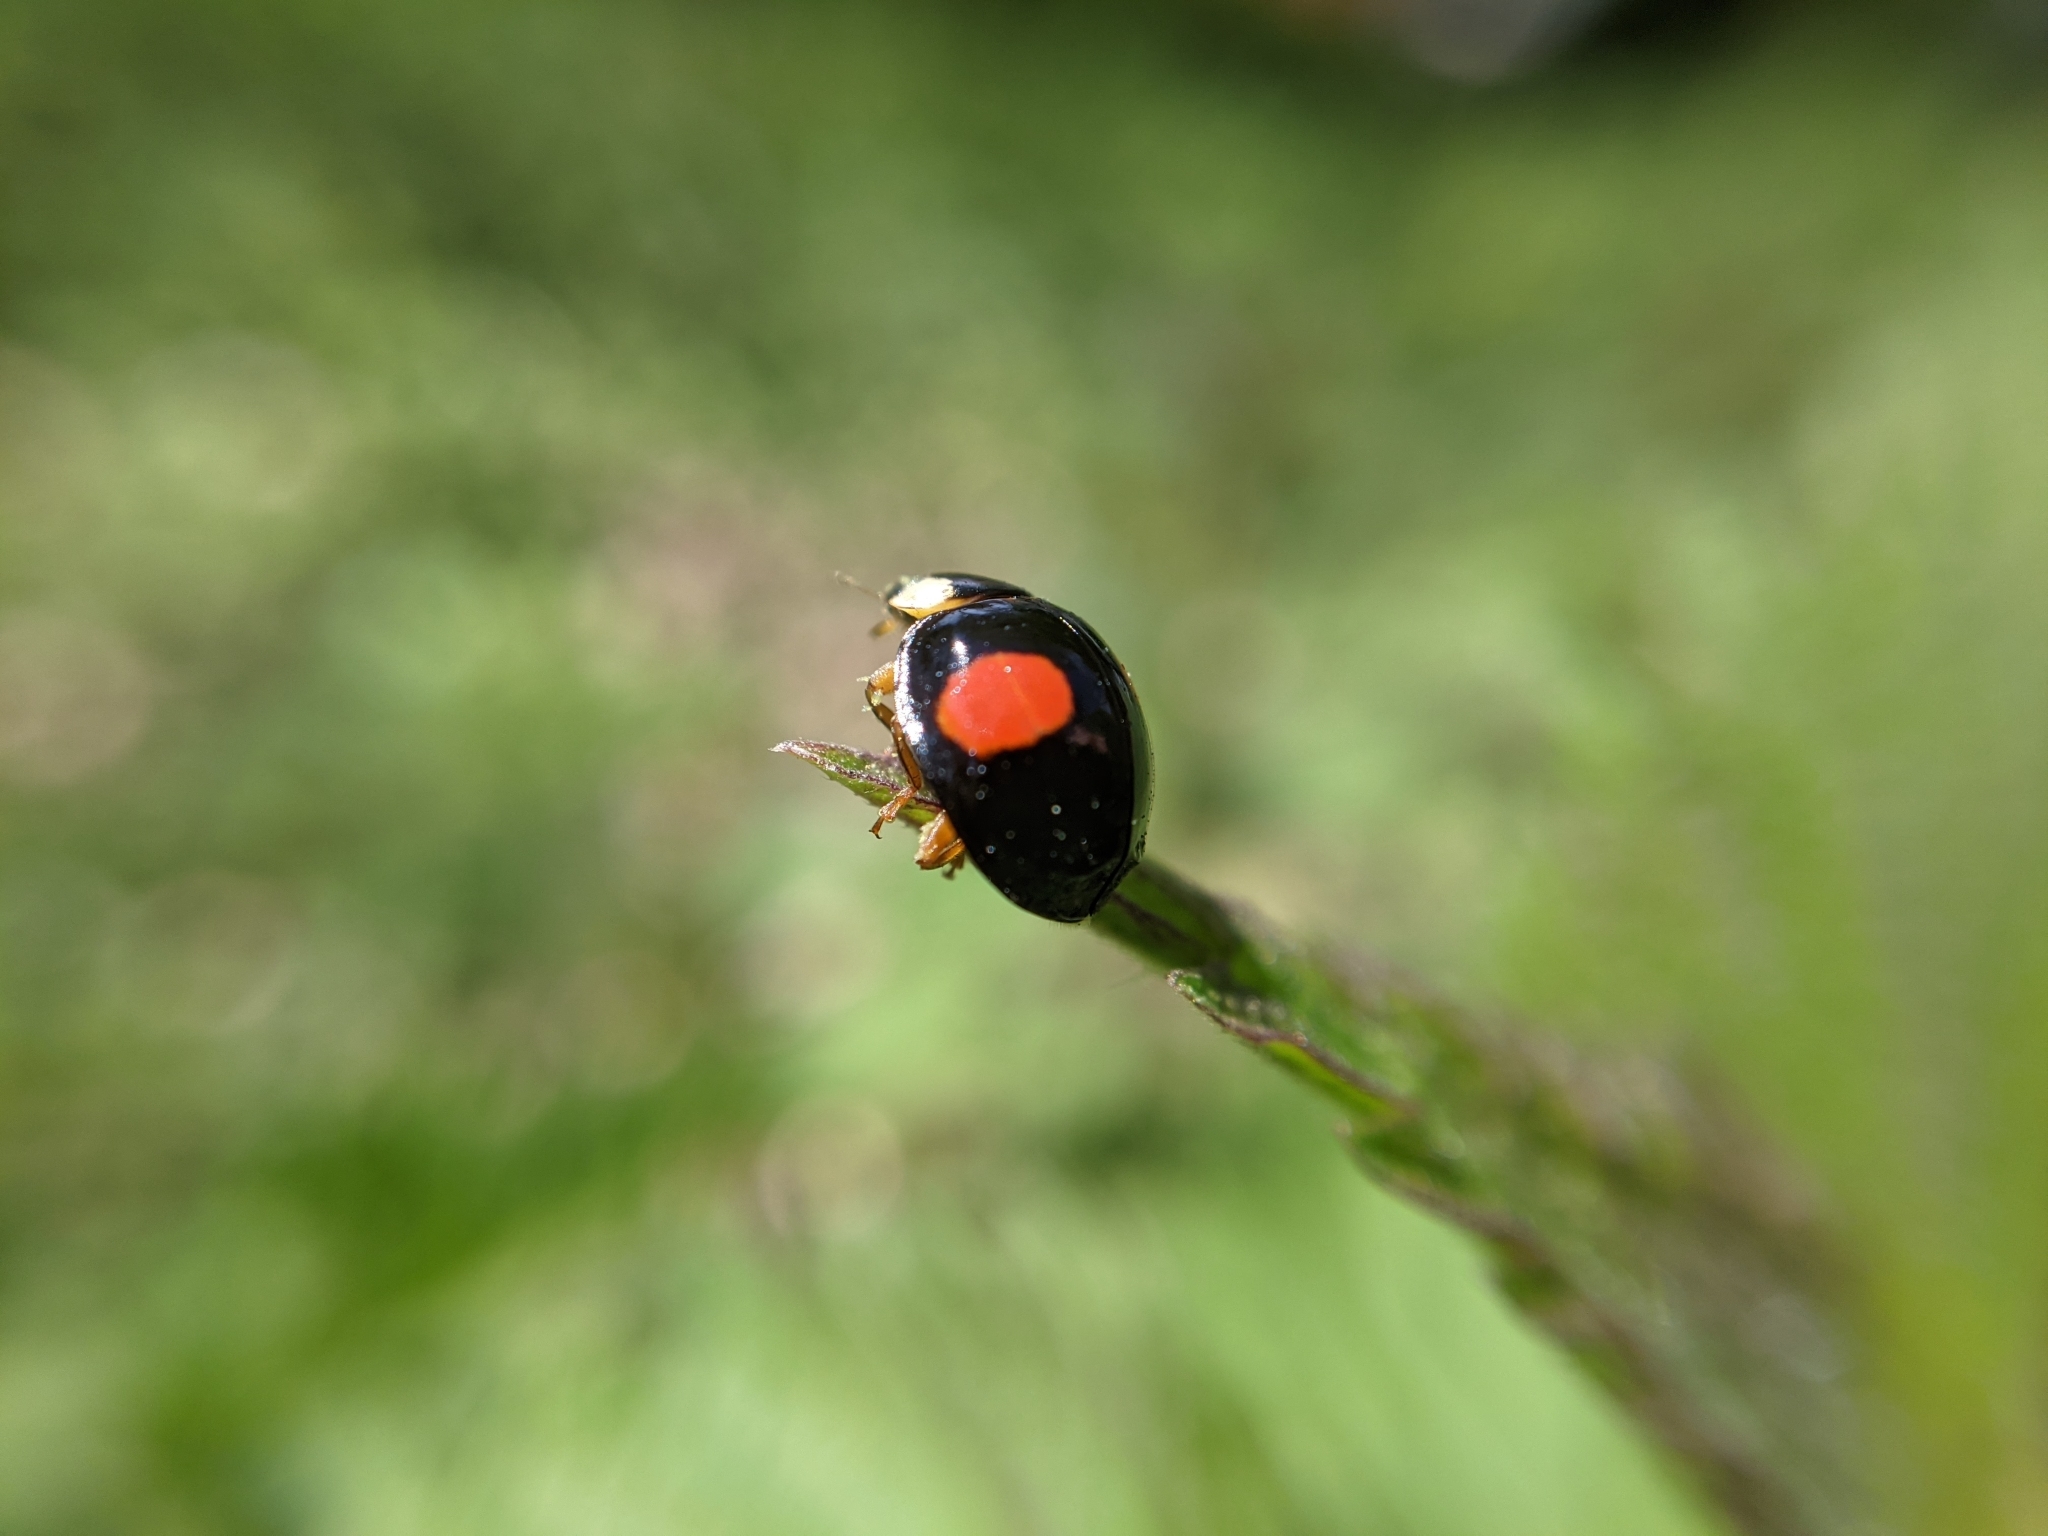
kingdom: Animalia
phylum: Arthropoda
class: Insecta
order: Coleoptera
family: Coccinellidae
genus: Harmonia
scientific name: Harmonia axyridis
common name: Harlequin ladybird
